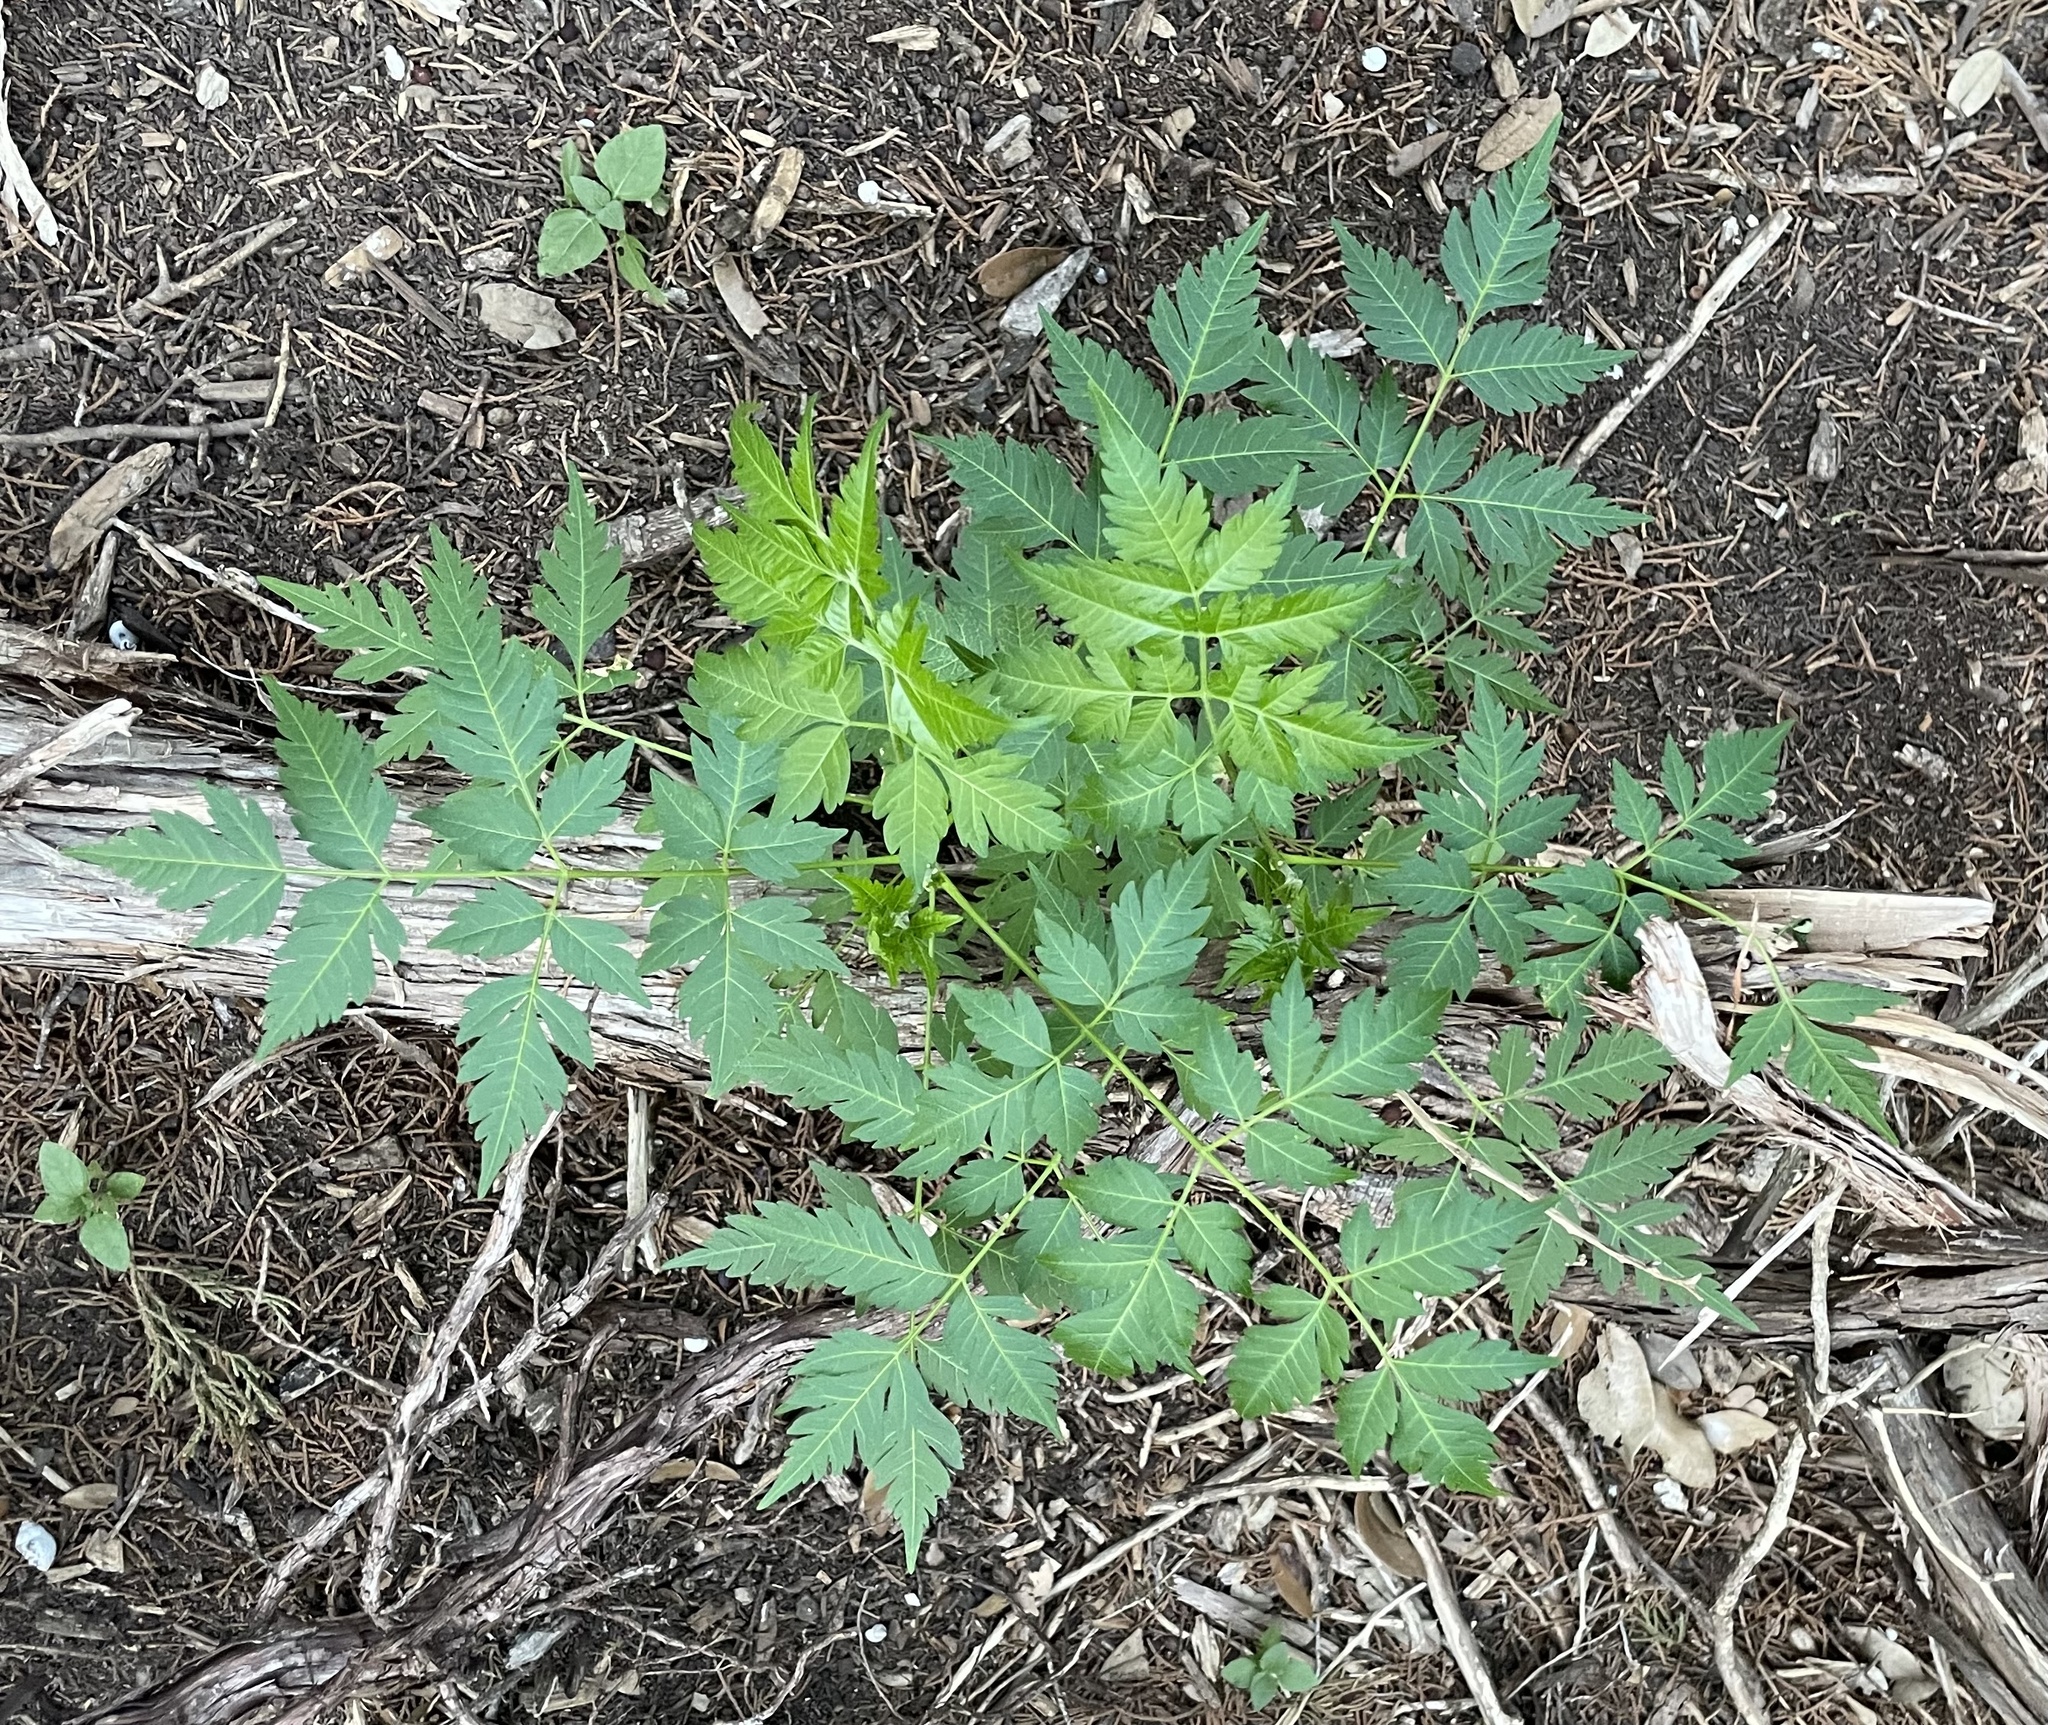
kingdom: Plantae
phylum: Tracheophyta
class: Magnoliopsida
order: Sapindales
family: Meliaceae
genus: Melia
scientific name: Melia azedarach
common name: Chinaberrytree
